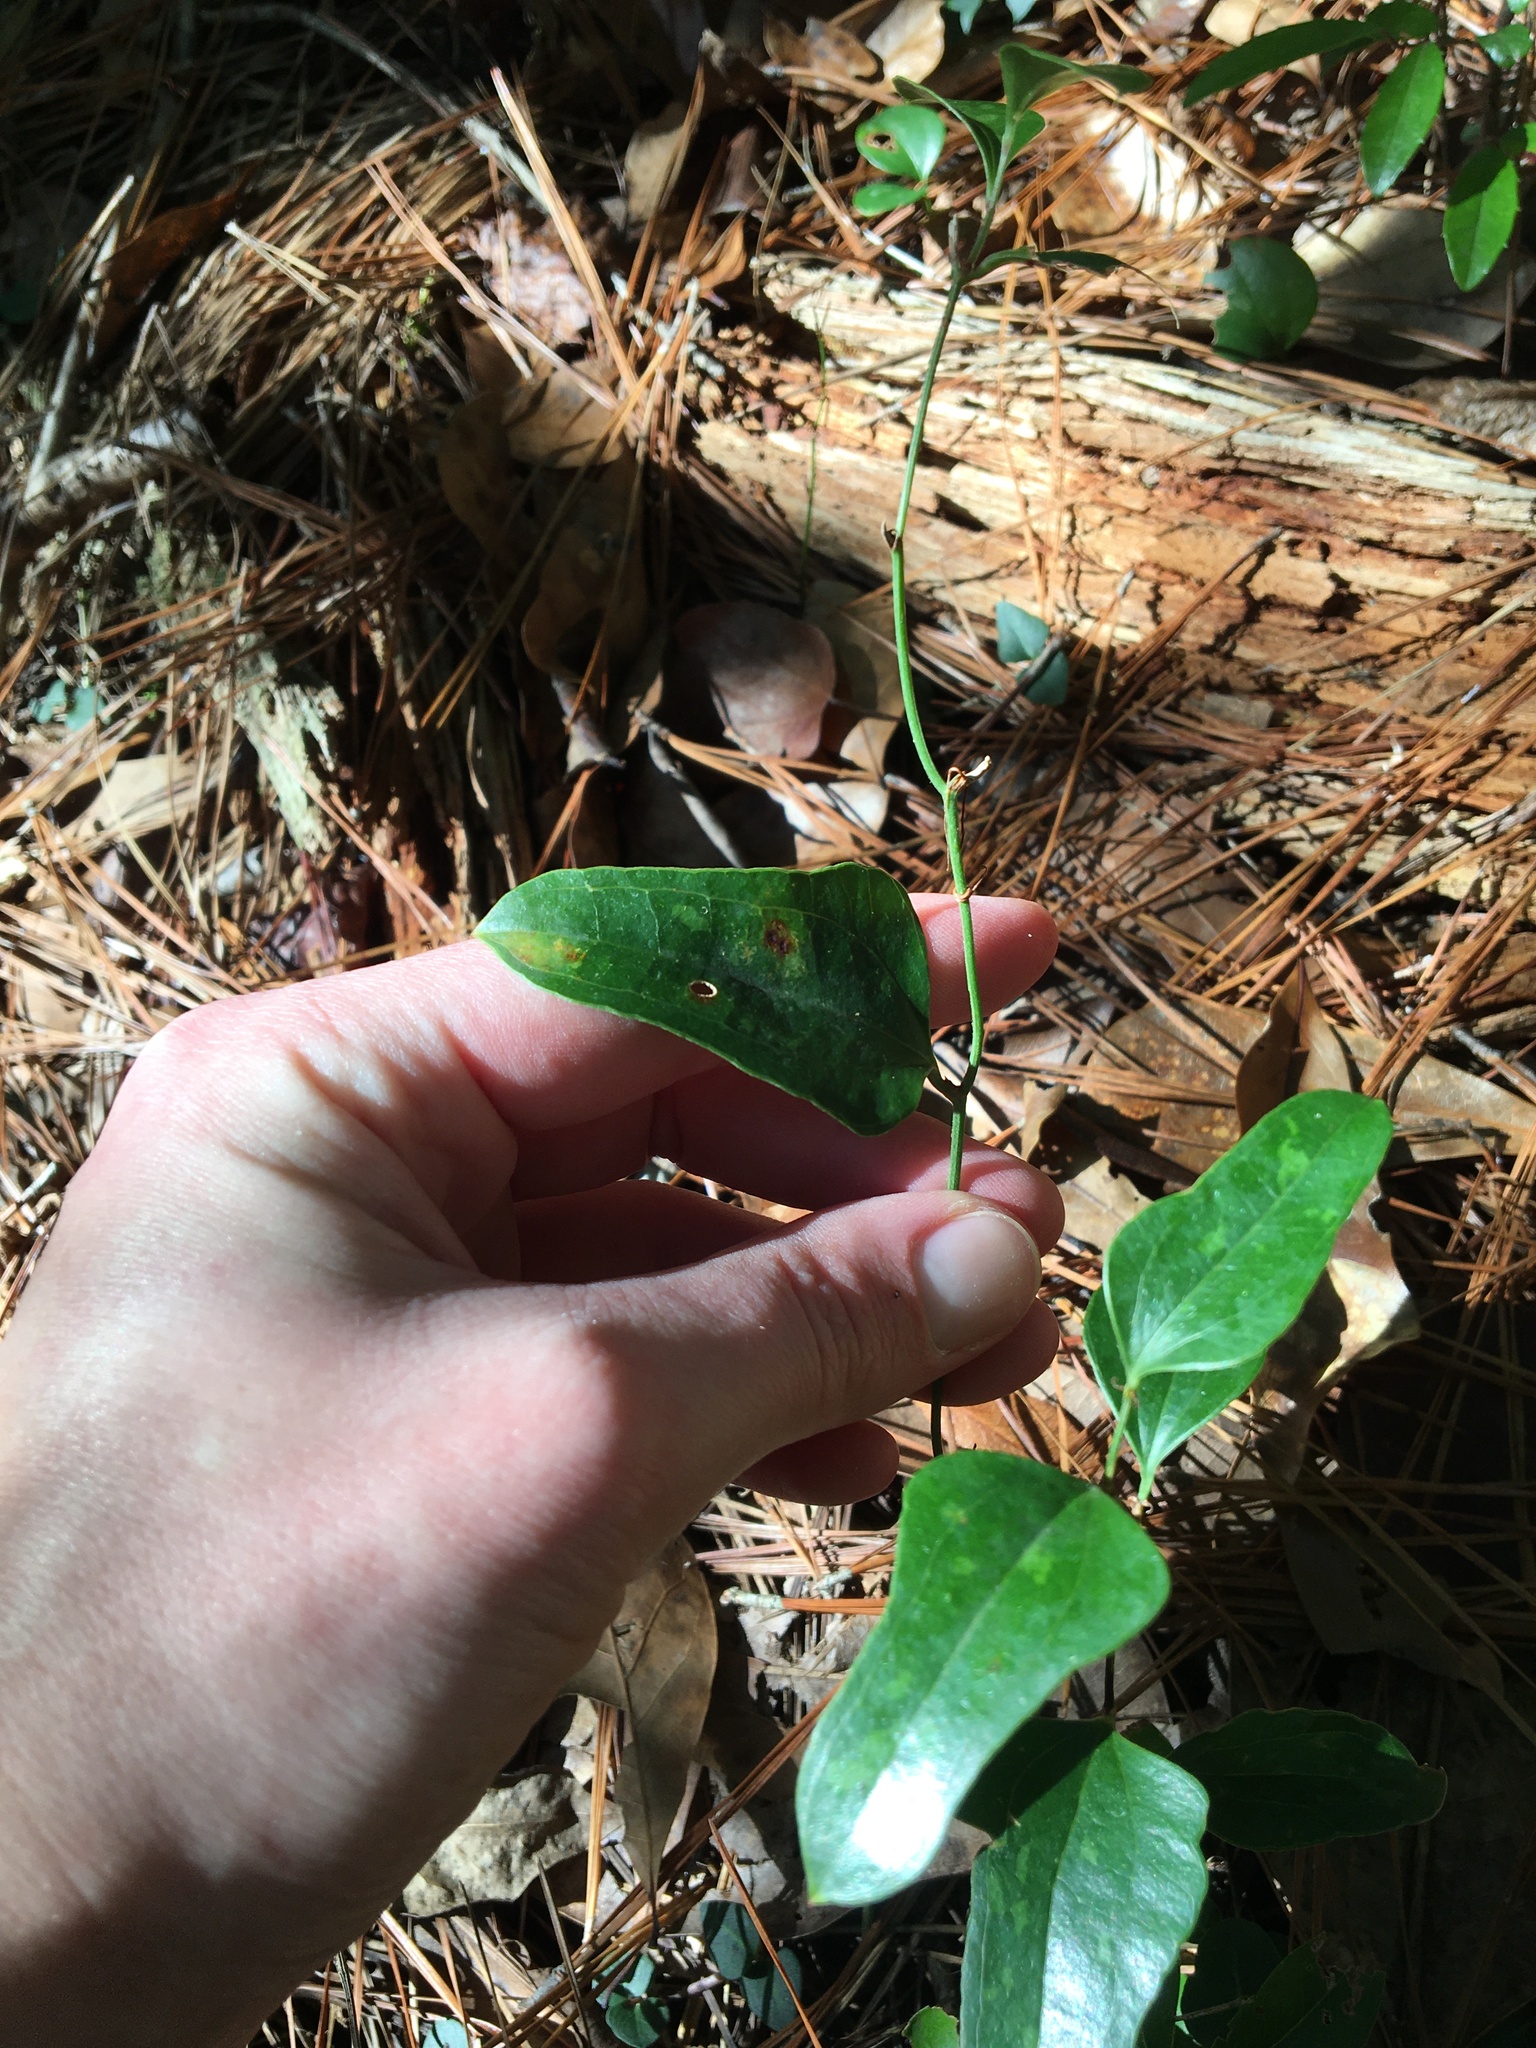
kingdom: Plantae
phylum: Tracheophyta
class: Liliopsida
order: Liliales
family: Smilacaceae
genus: Smilax
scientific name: Smilax auriculata
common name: Wild bamboo
